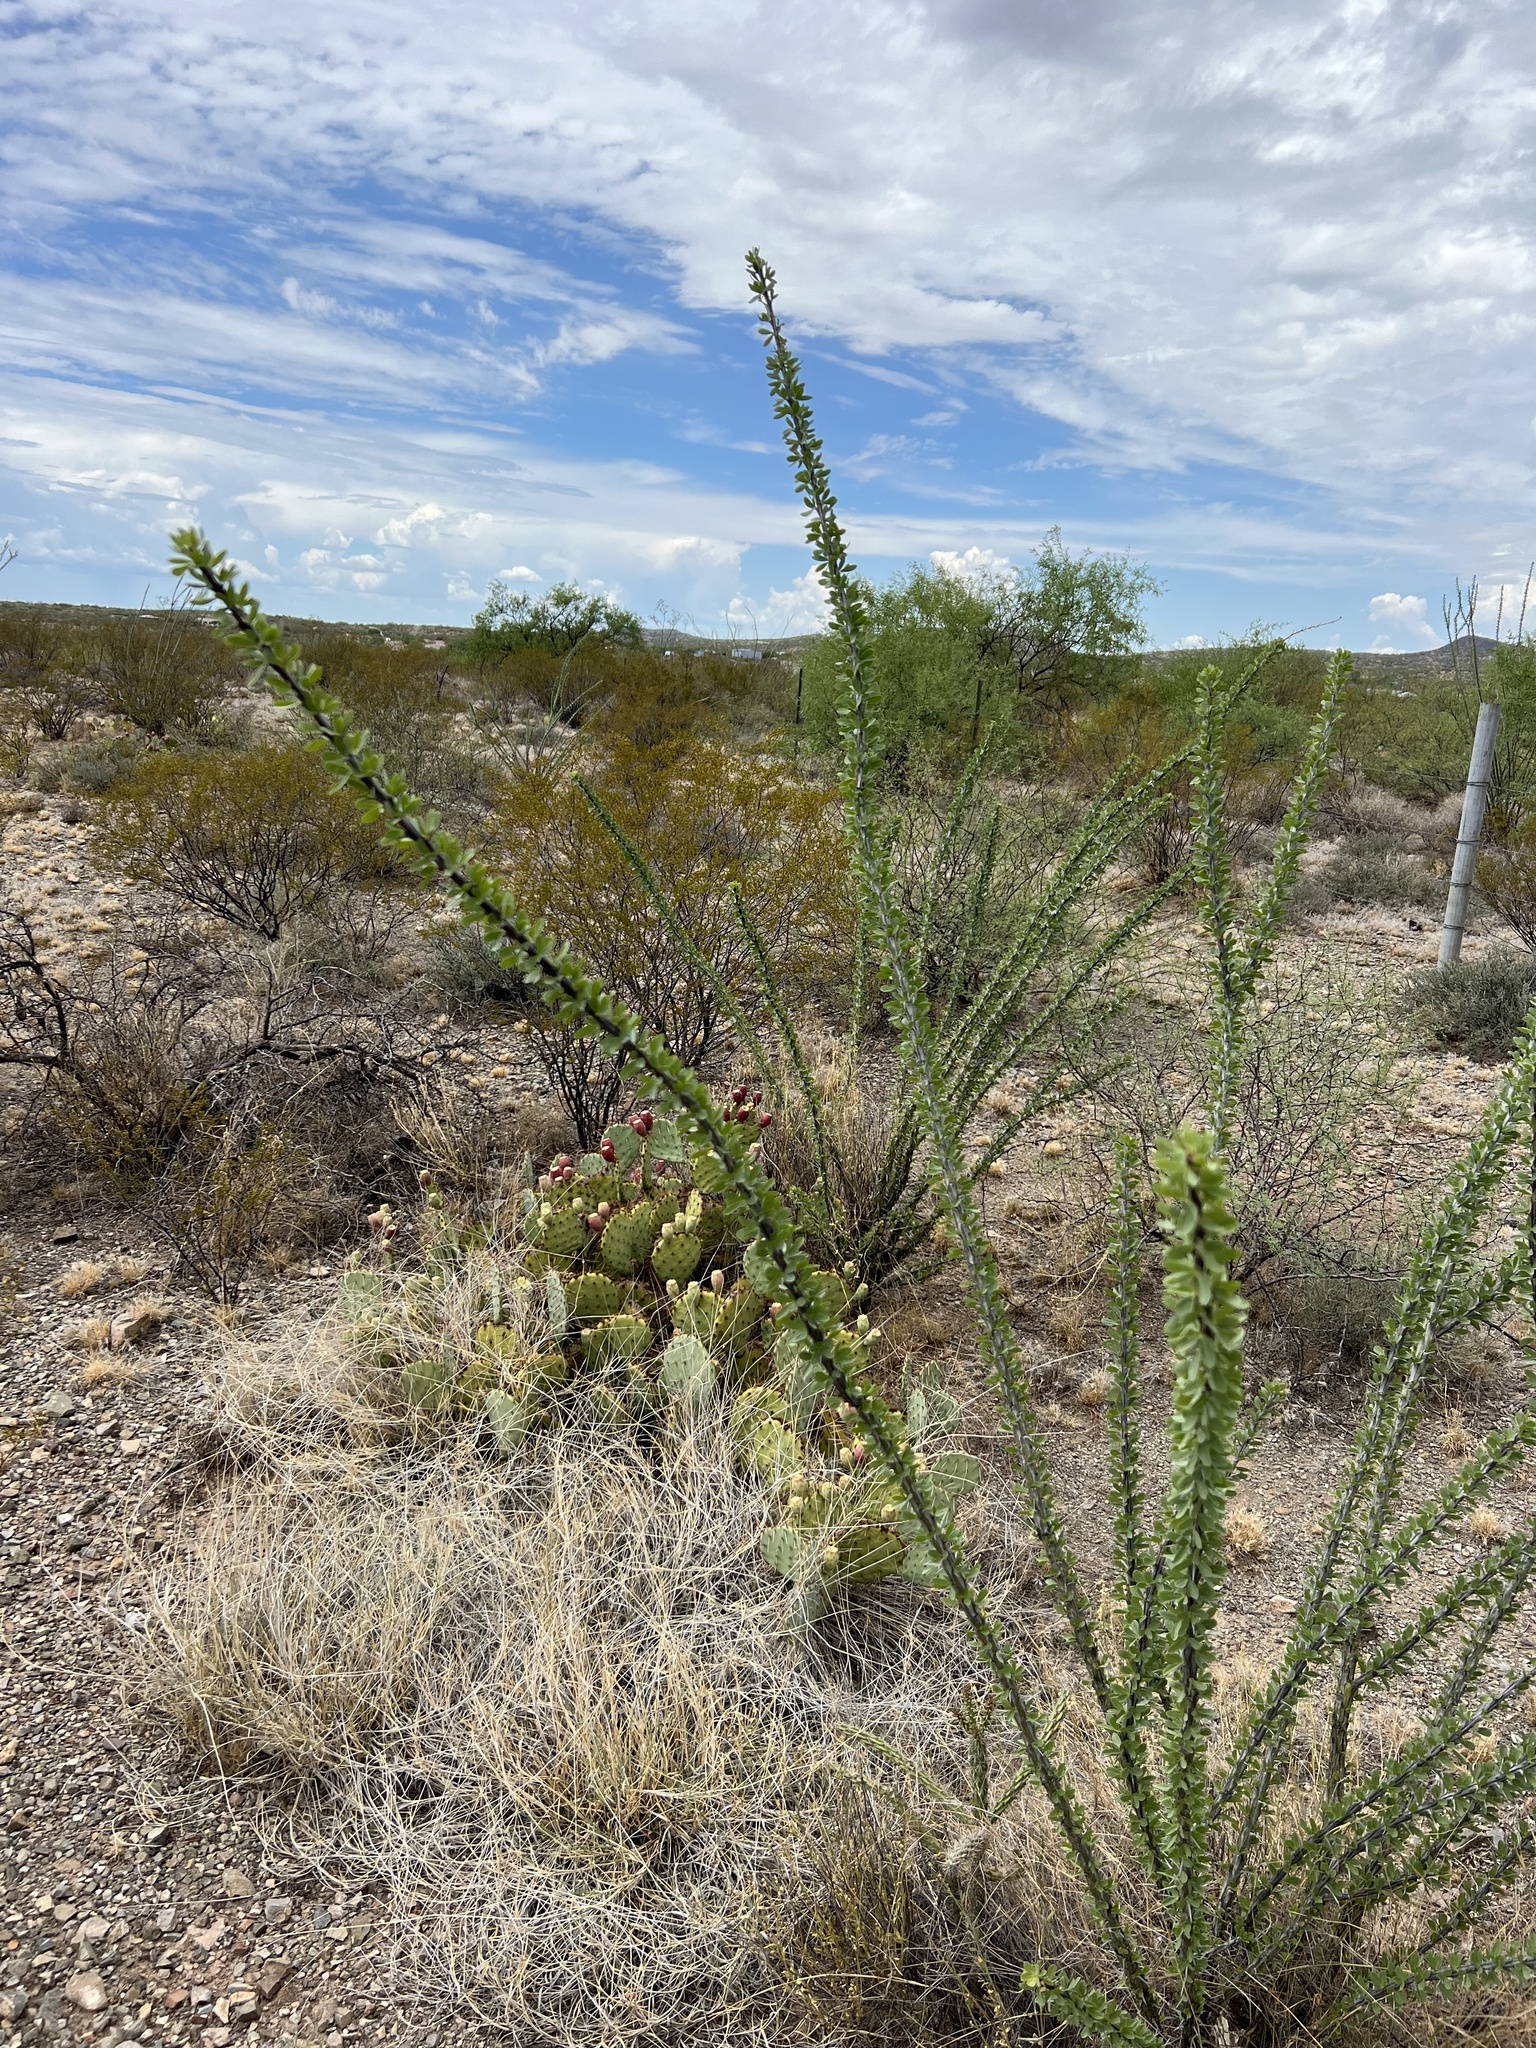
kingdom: Plantae
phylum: Tracheophyta
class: Magnoliopsida
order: Ericales
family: Fouquieriaceae
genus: Fouquieria
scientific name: Fouquieria splendens
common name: Vine-cactus
